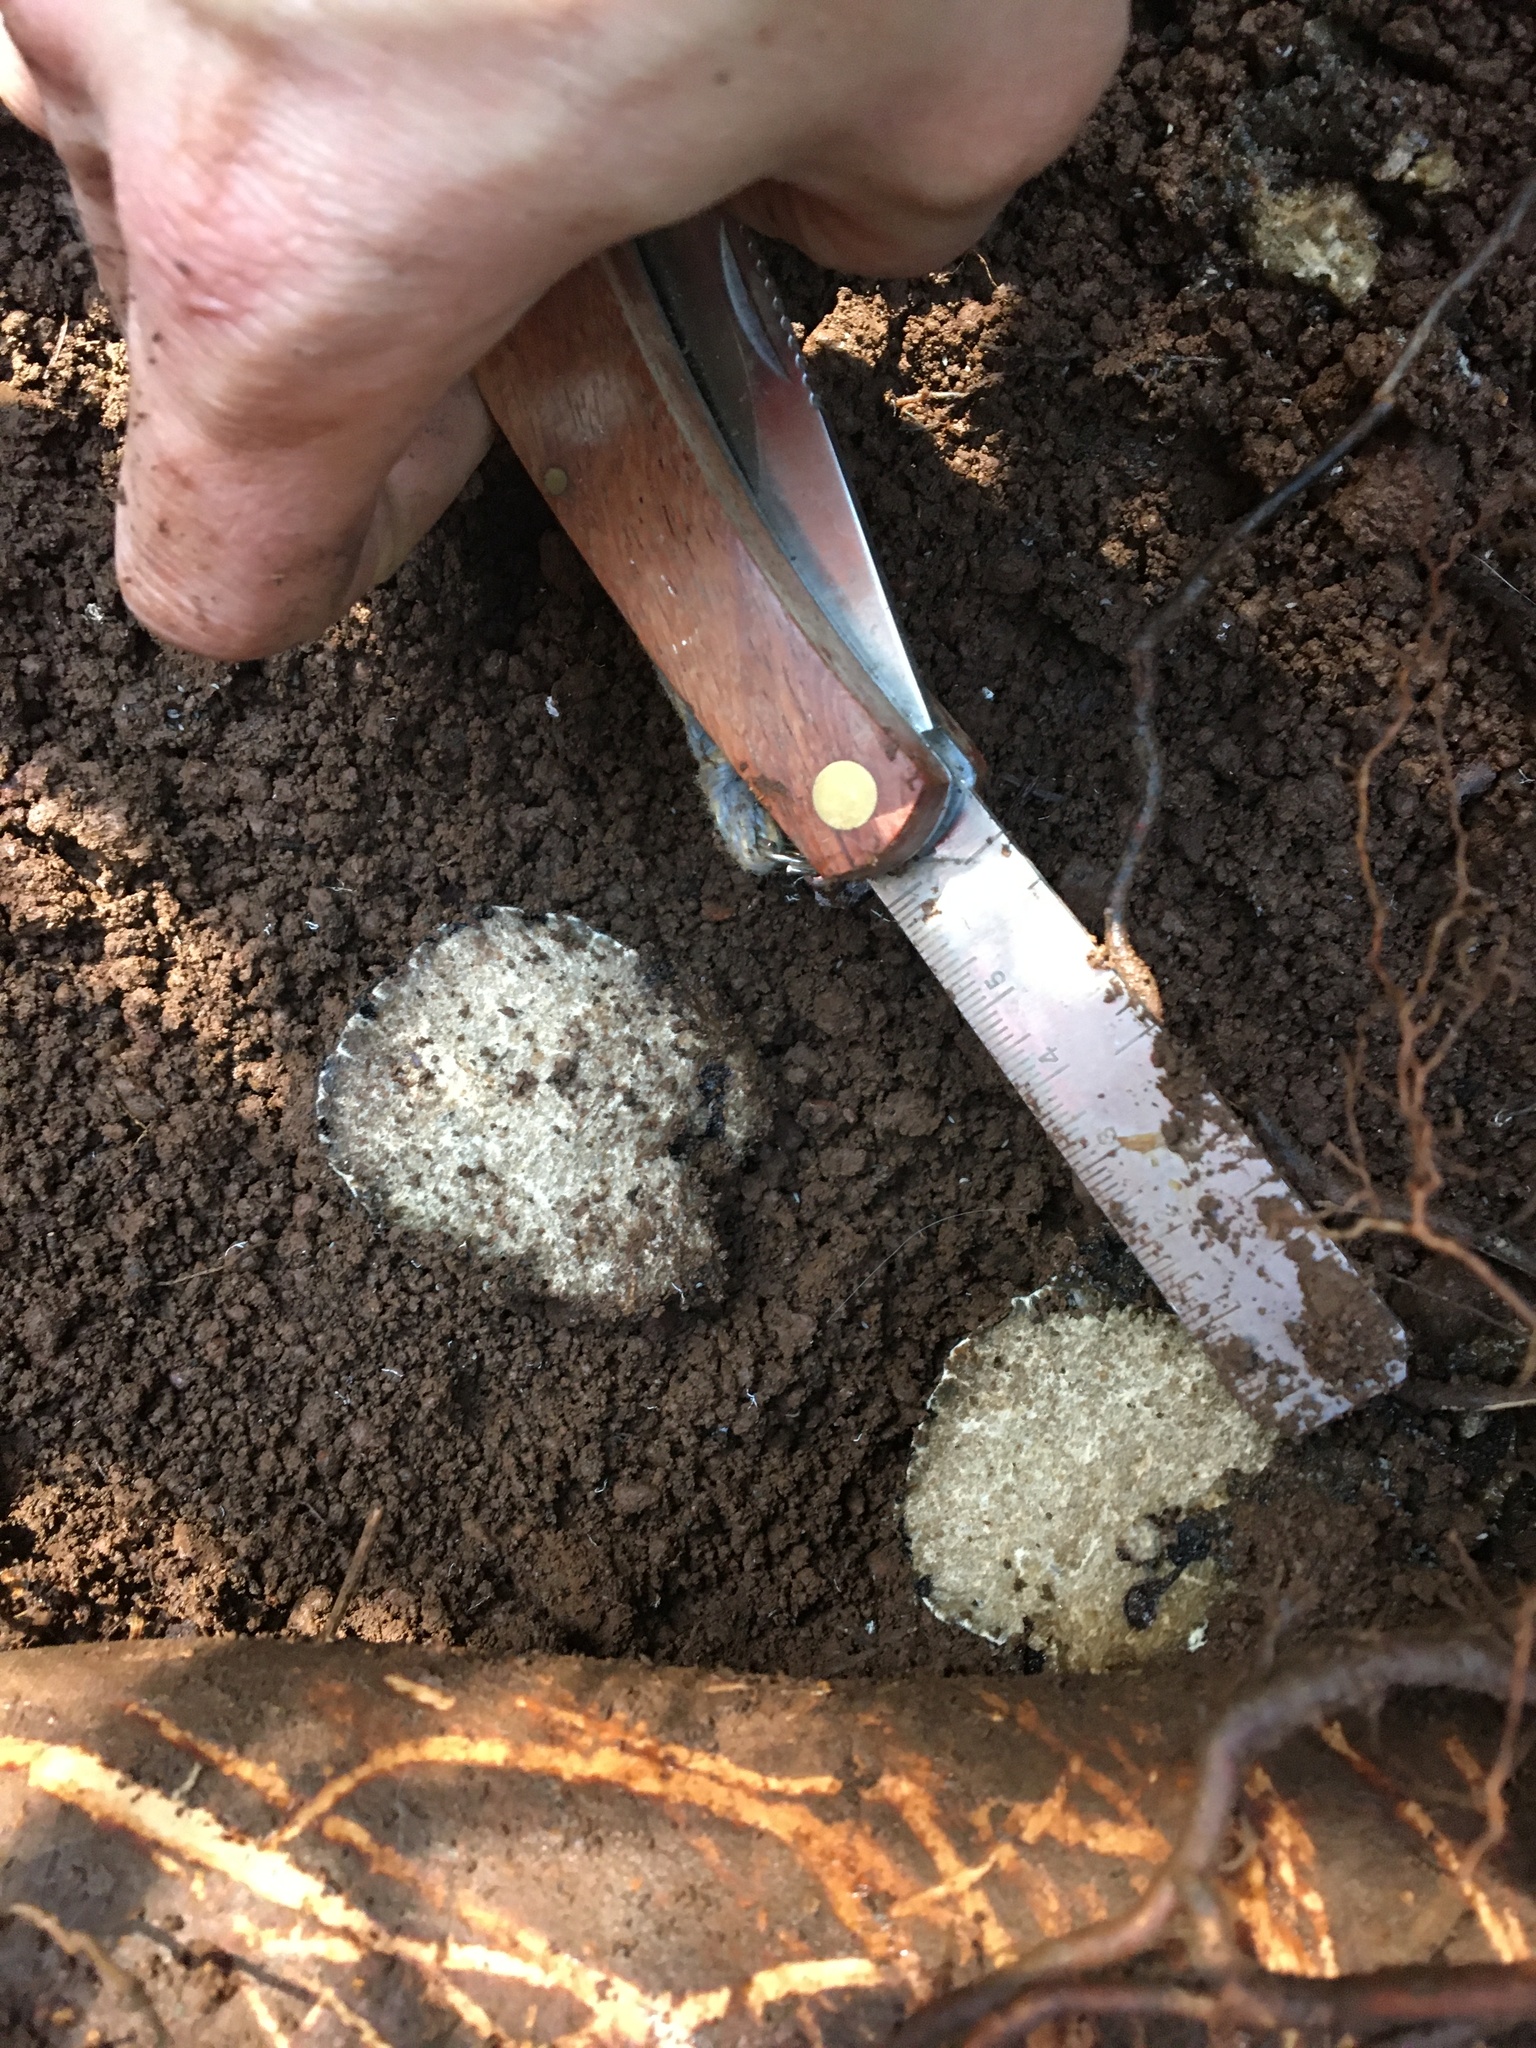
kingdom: Fungi
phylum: Ascomycota
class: Pezizomycetes
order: Pezizales
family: Morchellaceae
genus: Leucangium
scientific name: Leucangium carthusianum
